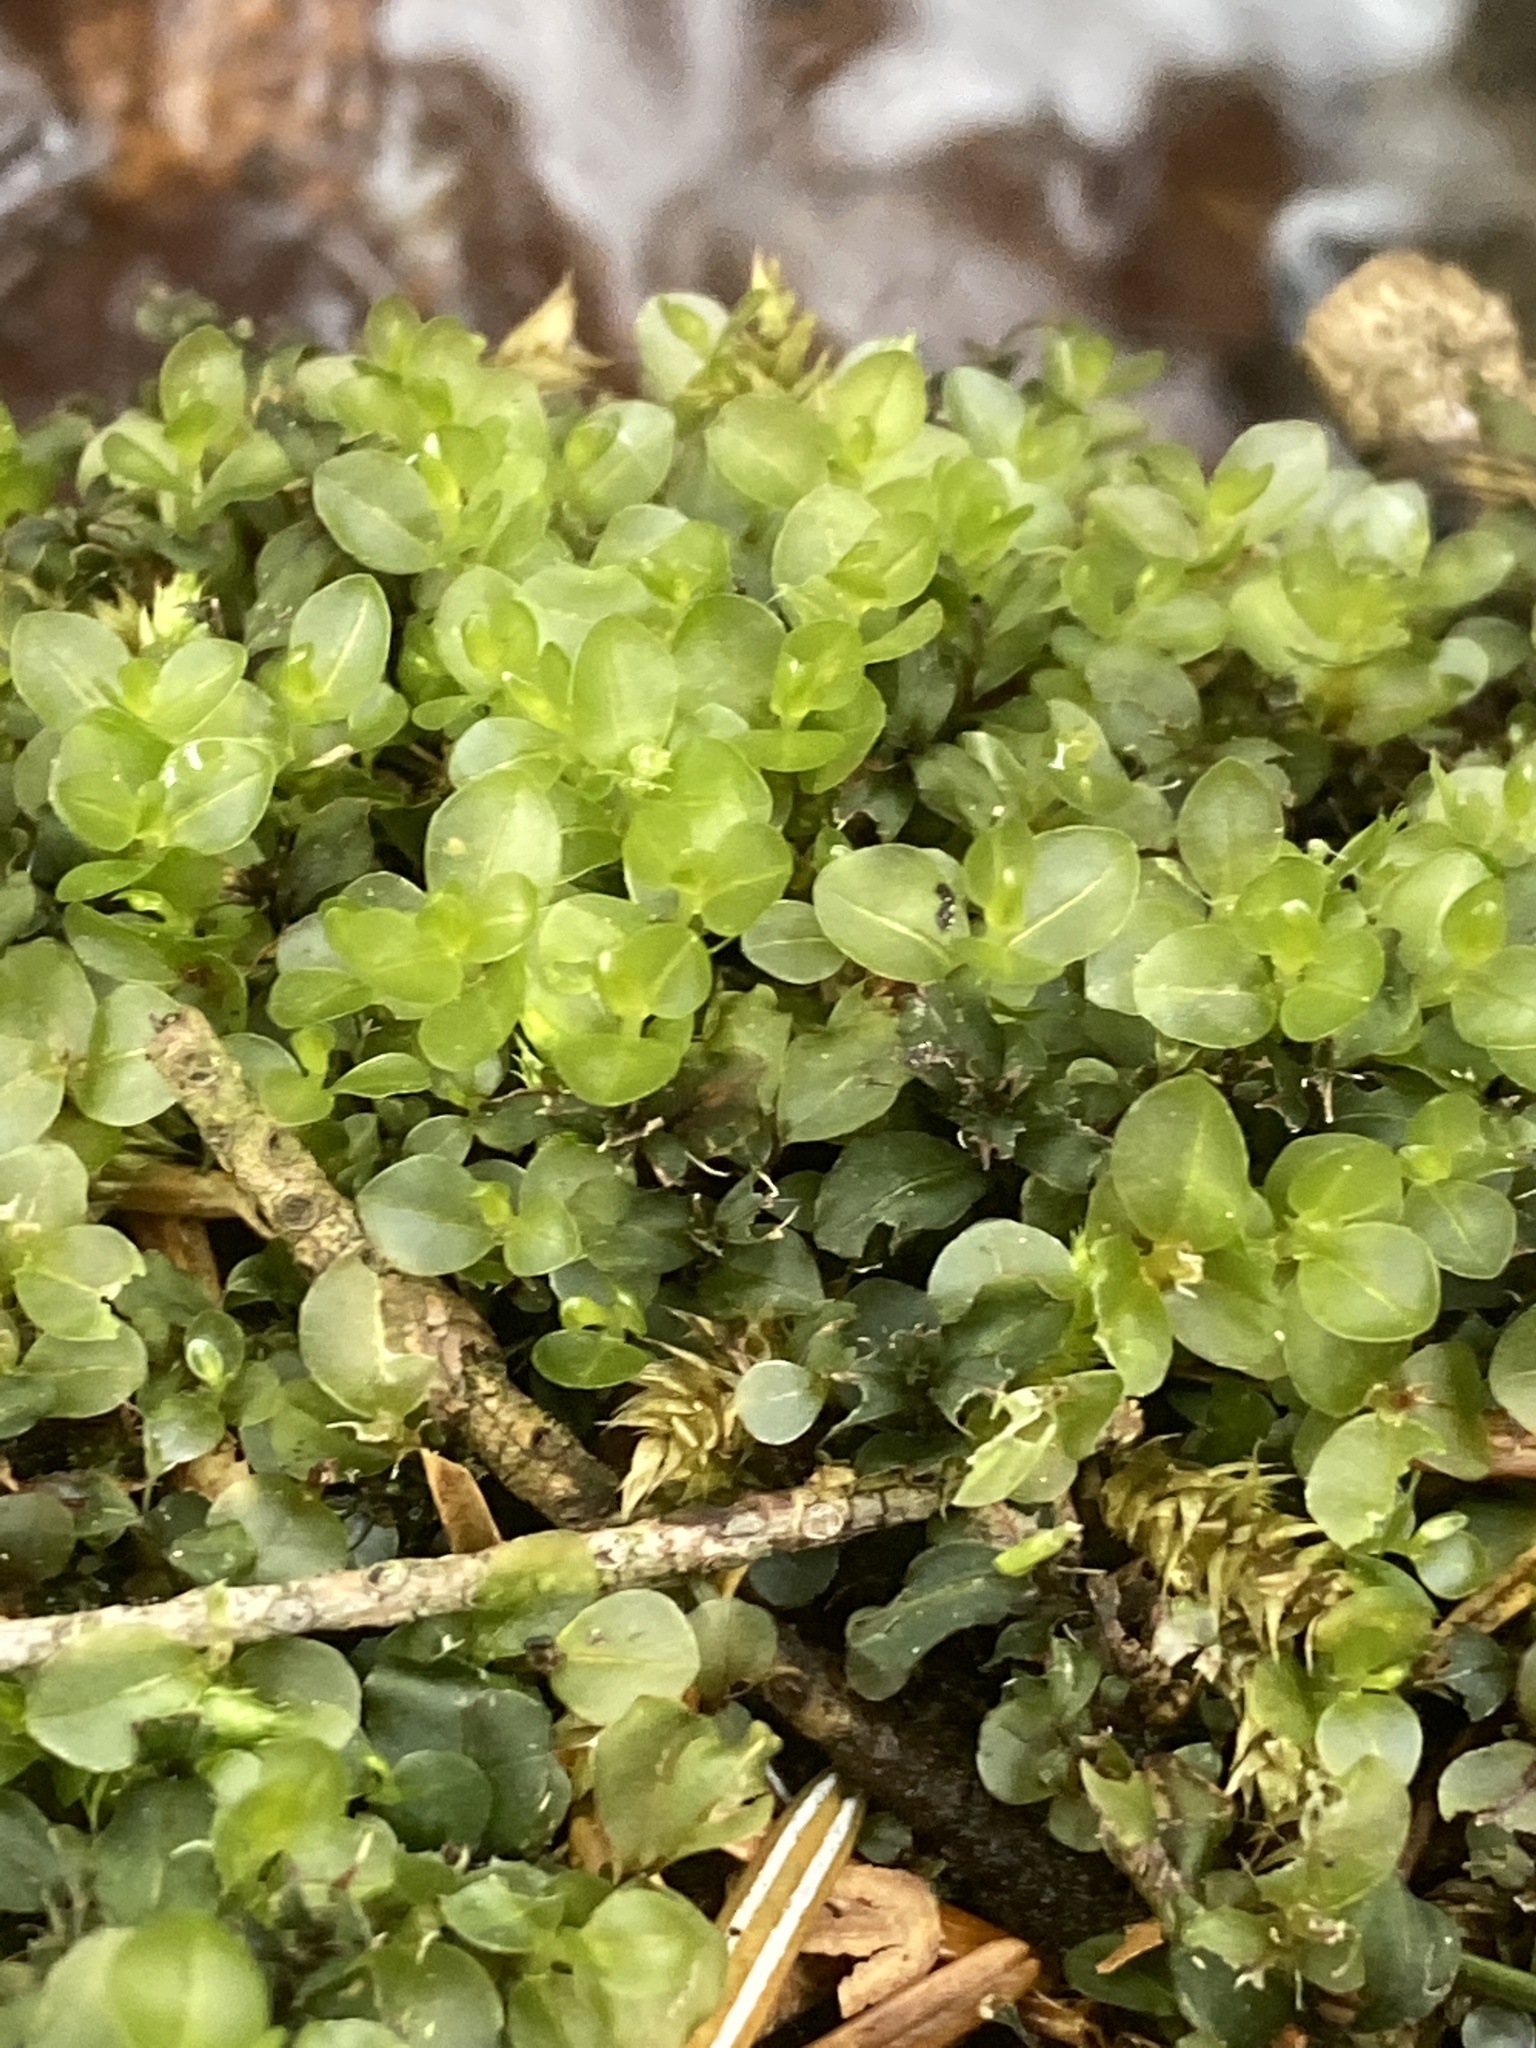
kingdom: Plantae
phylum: Bryophyta
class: Bryopsida
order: Bryales
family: Mniaceae
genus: Rhizomnium
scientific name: Rhizomnium punctatum
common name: Dotted leafy moss
